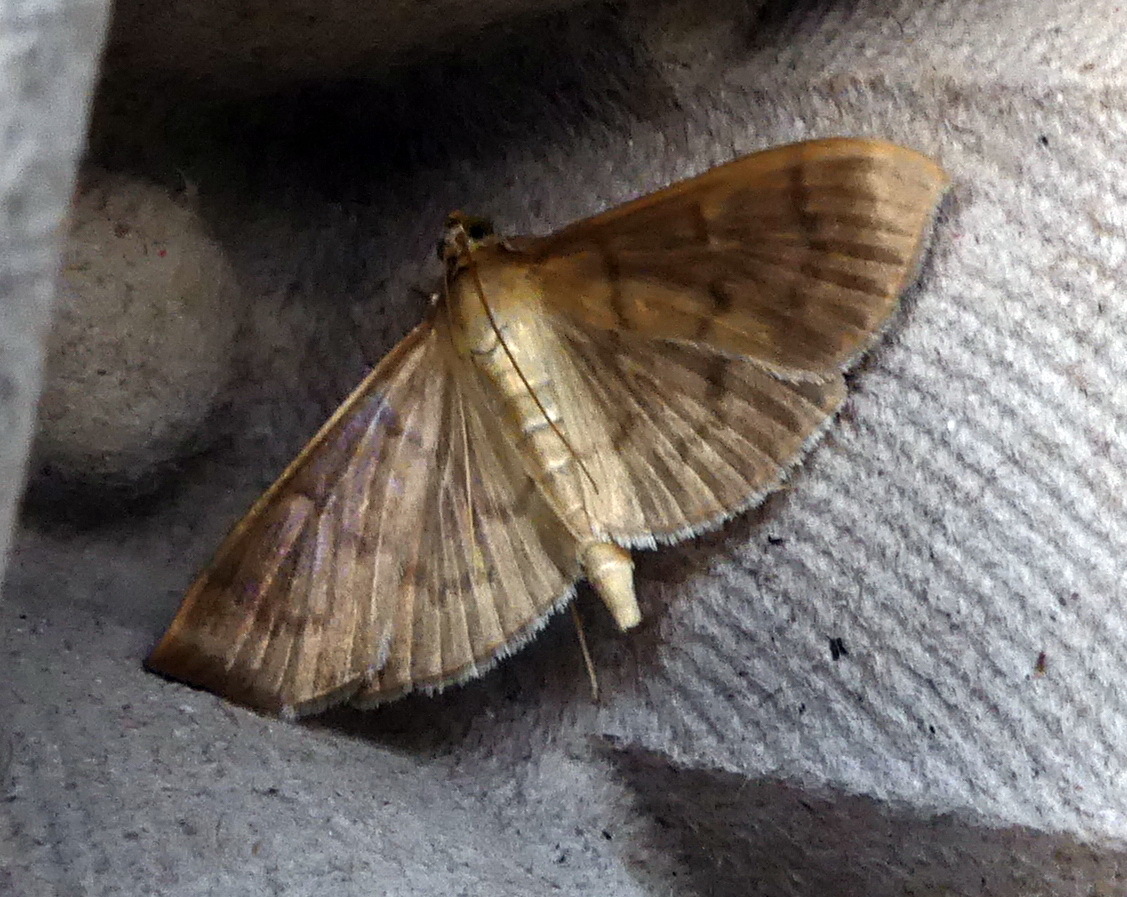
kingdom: Animalia
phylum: Arthropoda
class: Insecta
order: Lepidoptera
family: Crambidae
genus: Pleuroptya
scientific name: Pleuroptya silicalis
